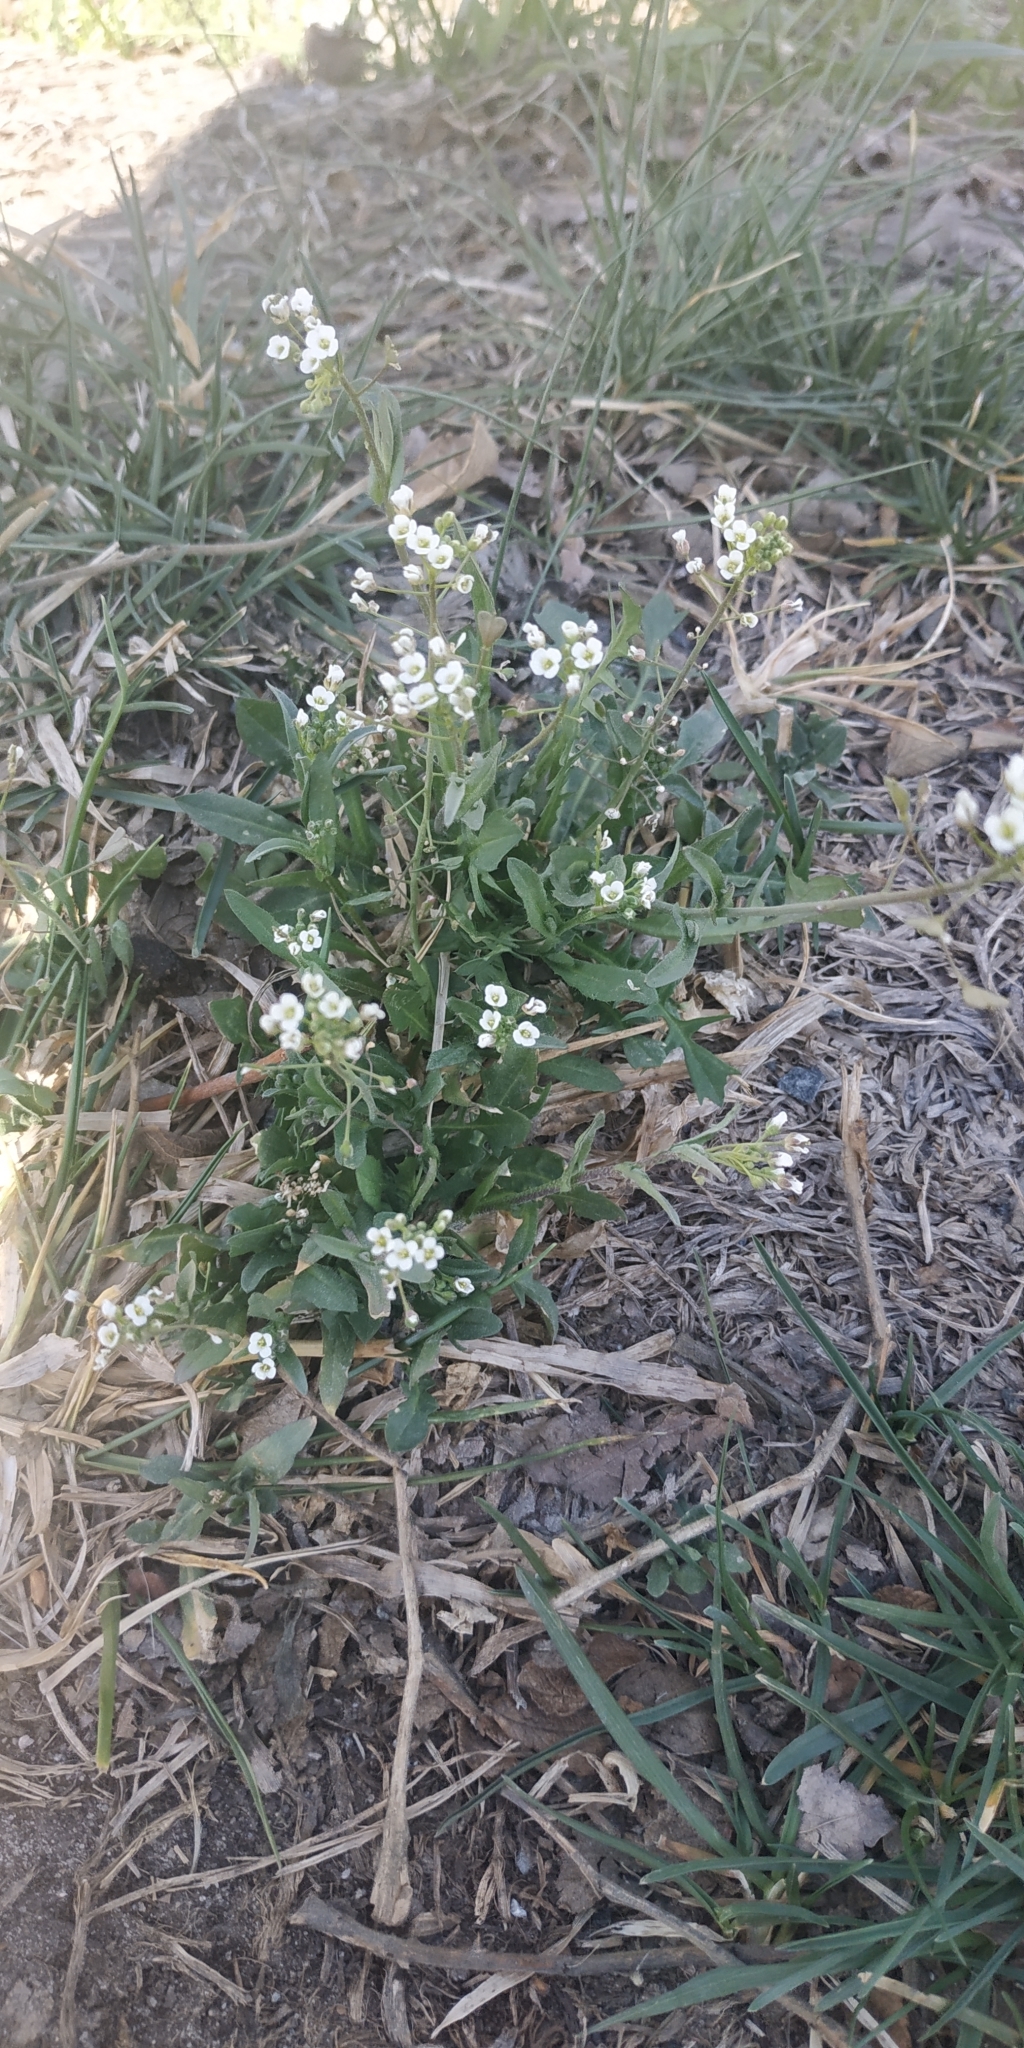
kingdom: Plantae
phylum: Tracheophyta
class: Magnoliopsida
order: Brassicales
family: Brassicaceae
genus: Capsella
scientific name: Capsella bursa-pastoris
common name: Shepherd's purse
